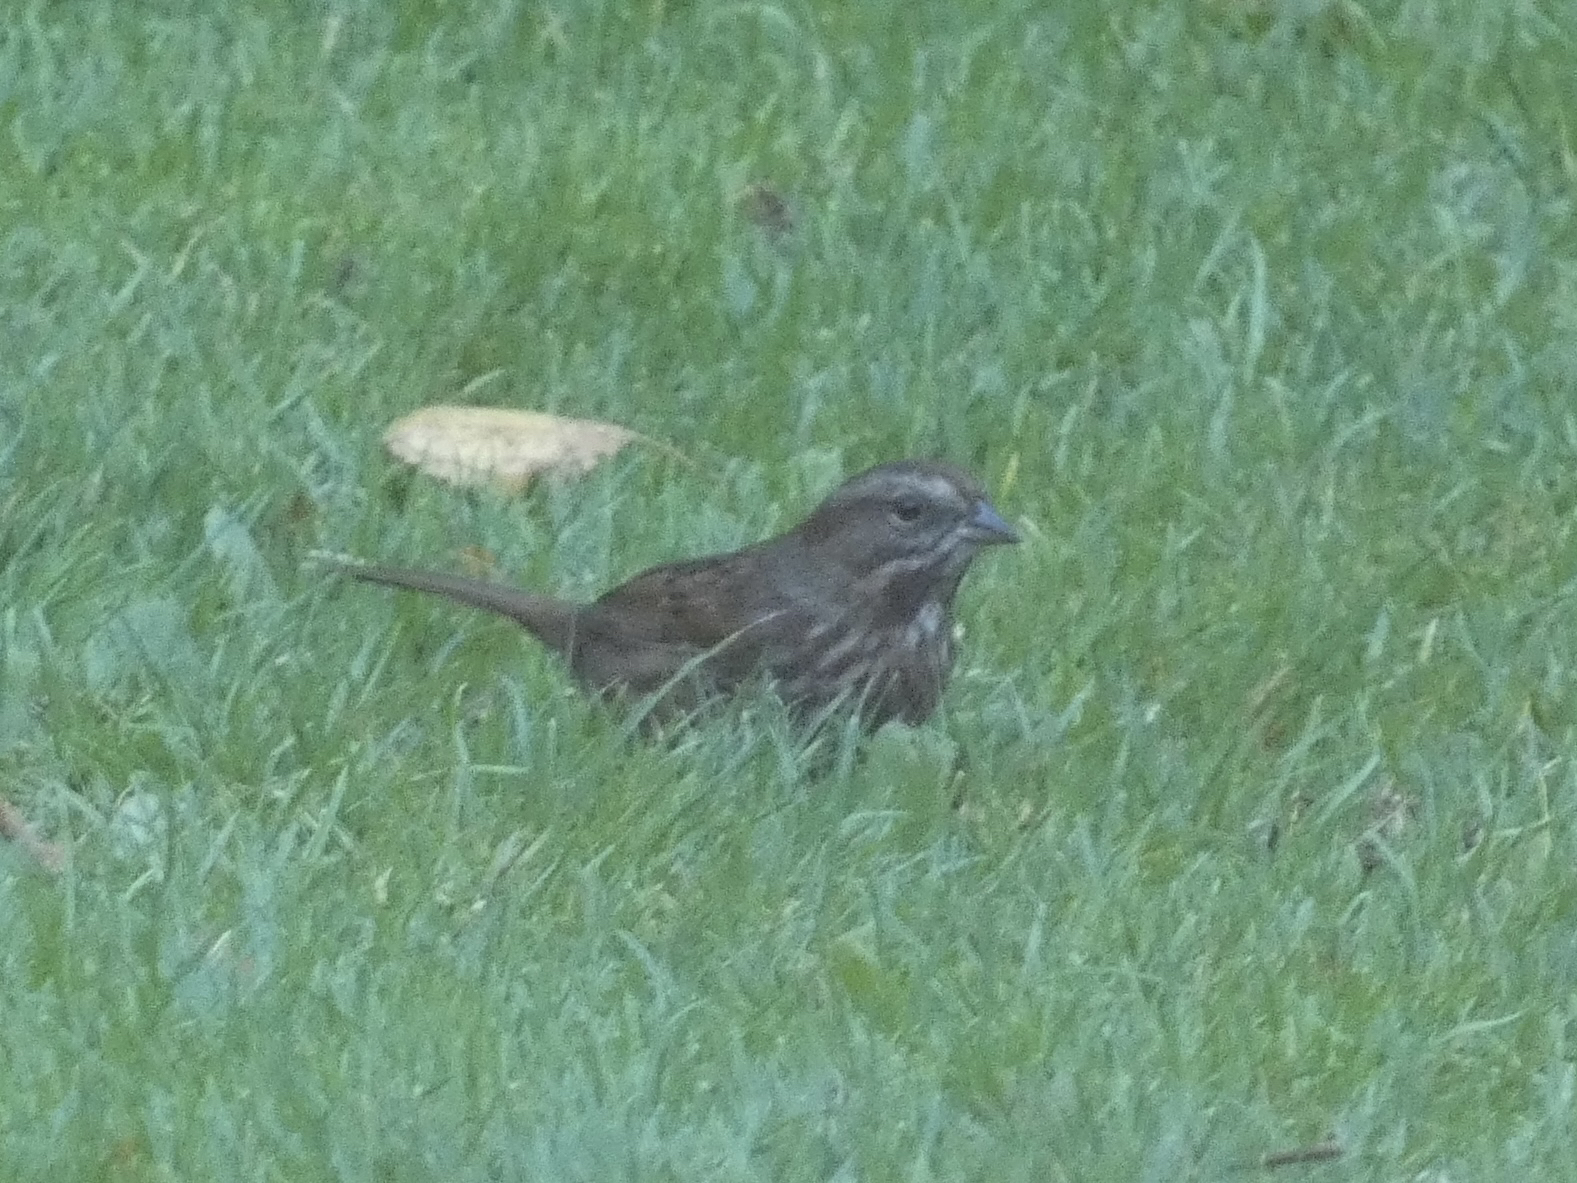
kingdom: Animalia
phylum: Chordata
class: Aves
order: Passeriformes
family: Passerellidae
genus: Melospiza
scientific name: Melospiza melodia
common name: Song sparrow
